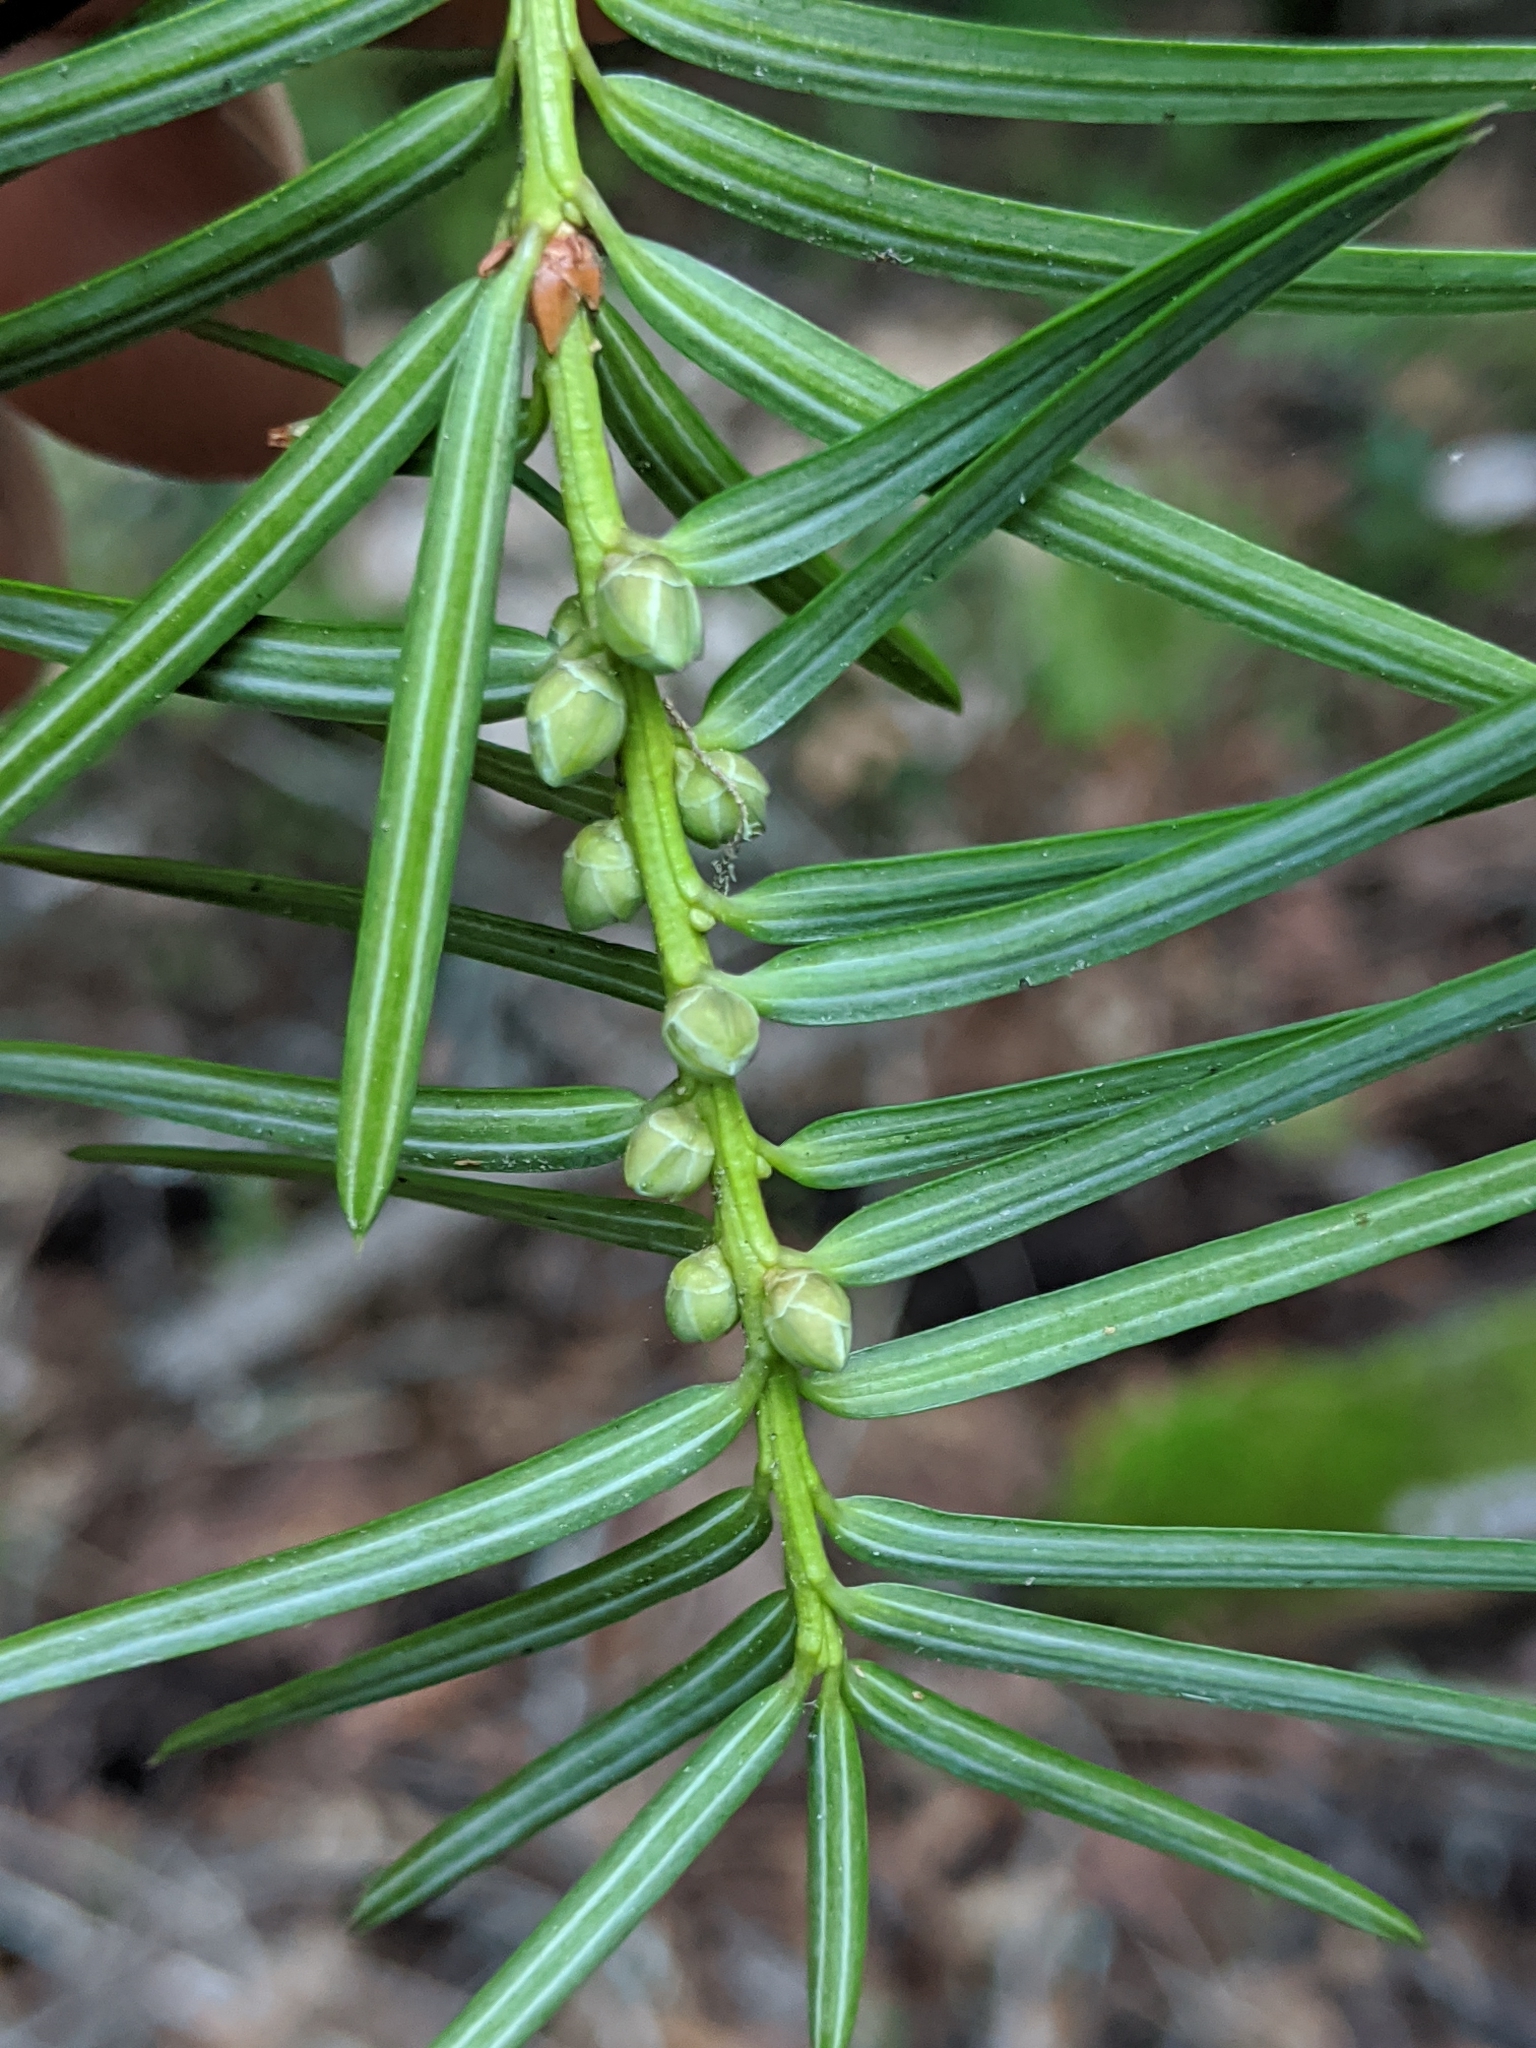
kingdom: Plantae
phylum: Tracheophyta
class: Pinopsida
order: Pinales
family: Taxaceae
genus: Torreya
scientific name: Torreya californica
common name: California torreya
